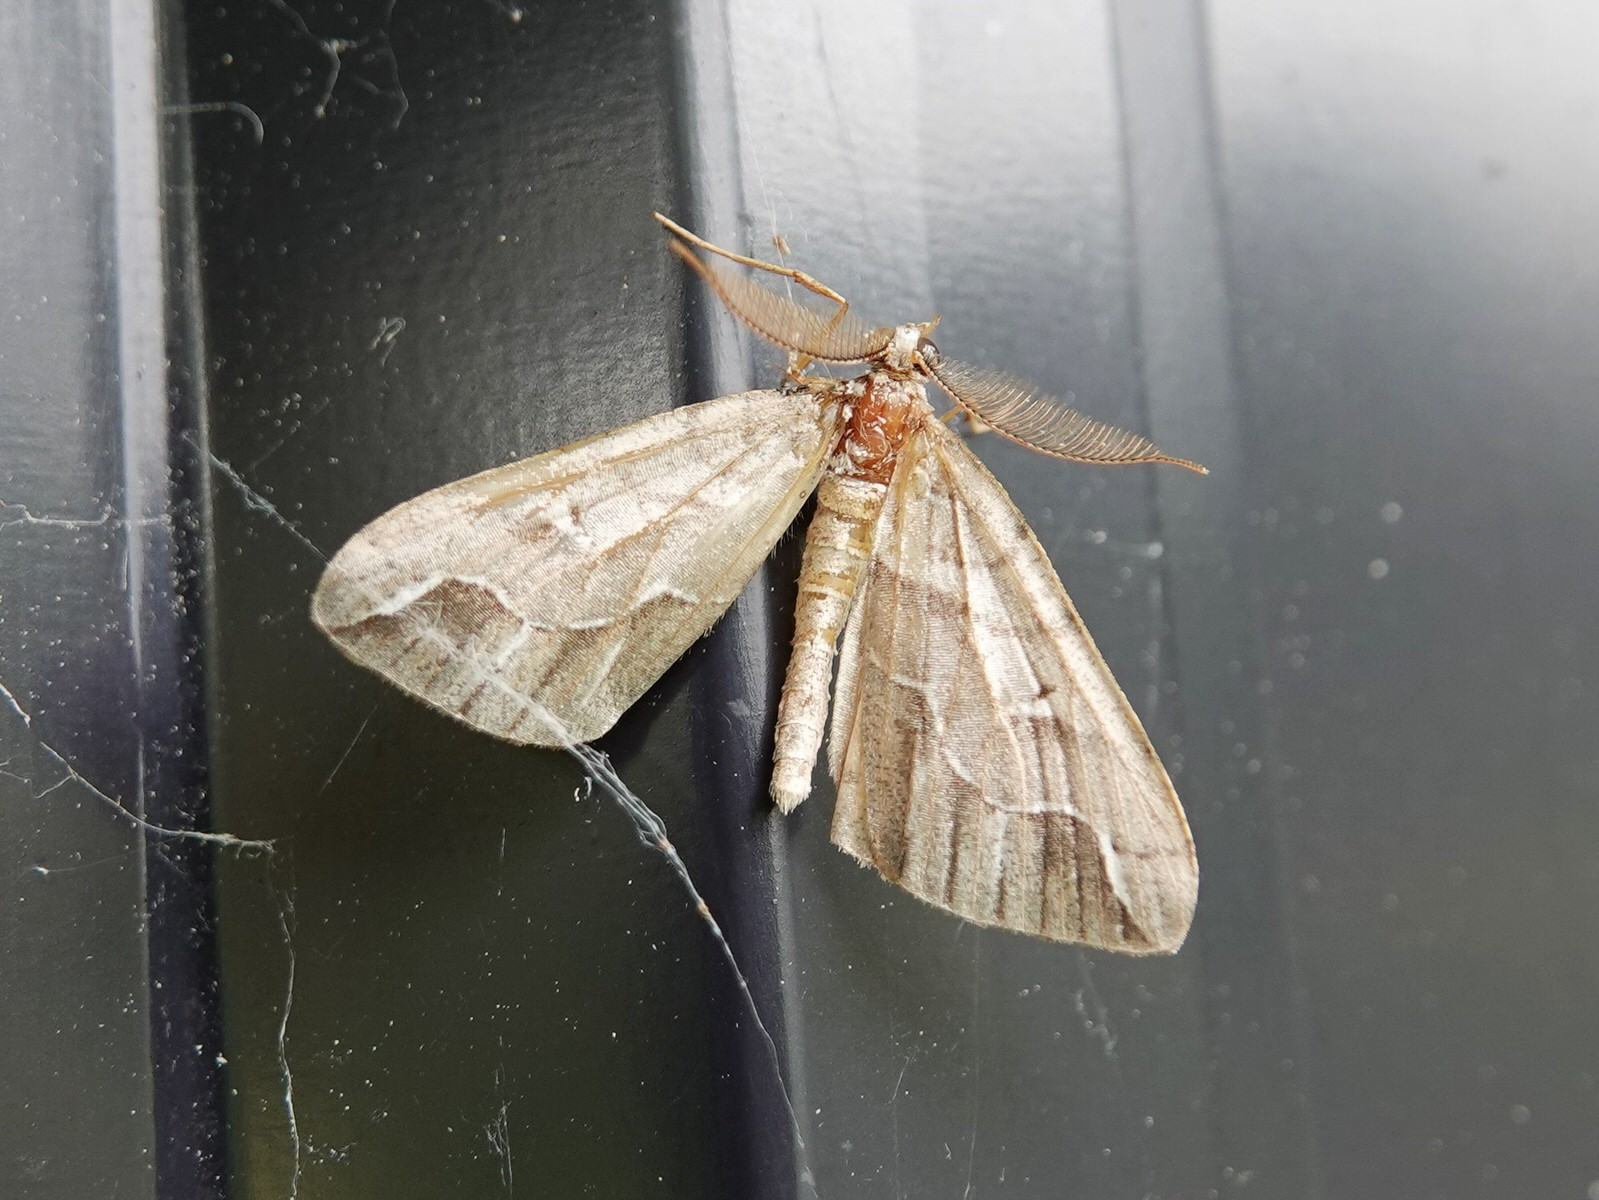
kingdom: Animalia
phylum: Arthropoda
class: Insecta
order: Lepidoptera
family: Geometridae
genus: Chalastra
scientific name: Chalastra aristarcha
